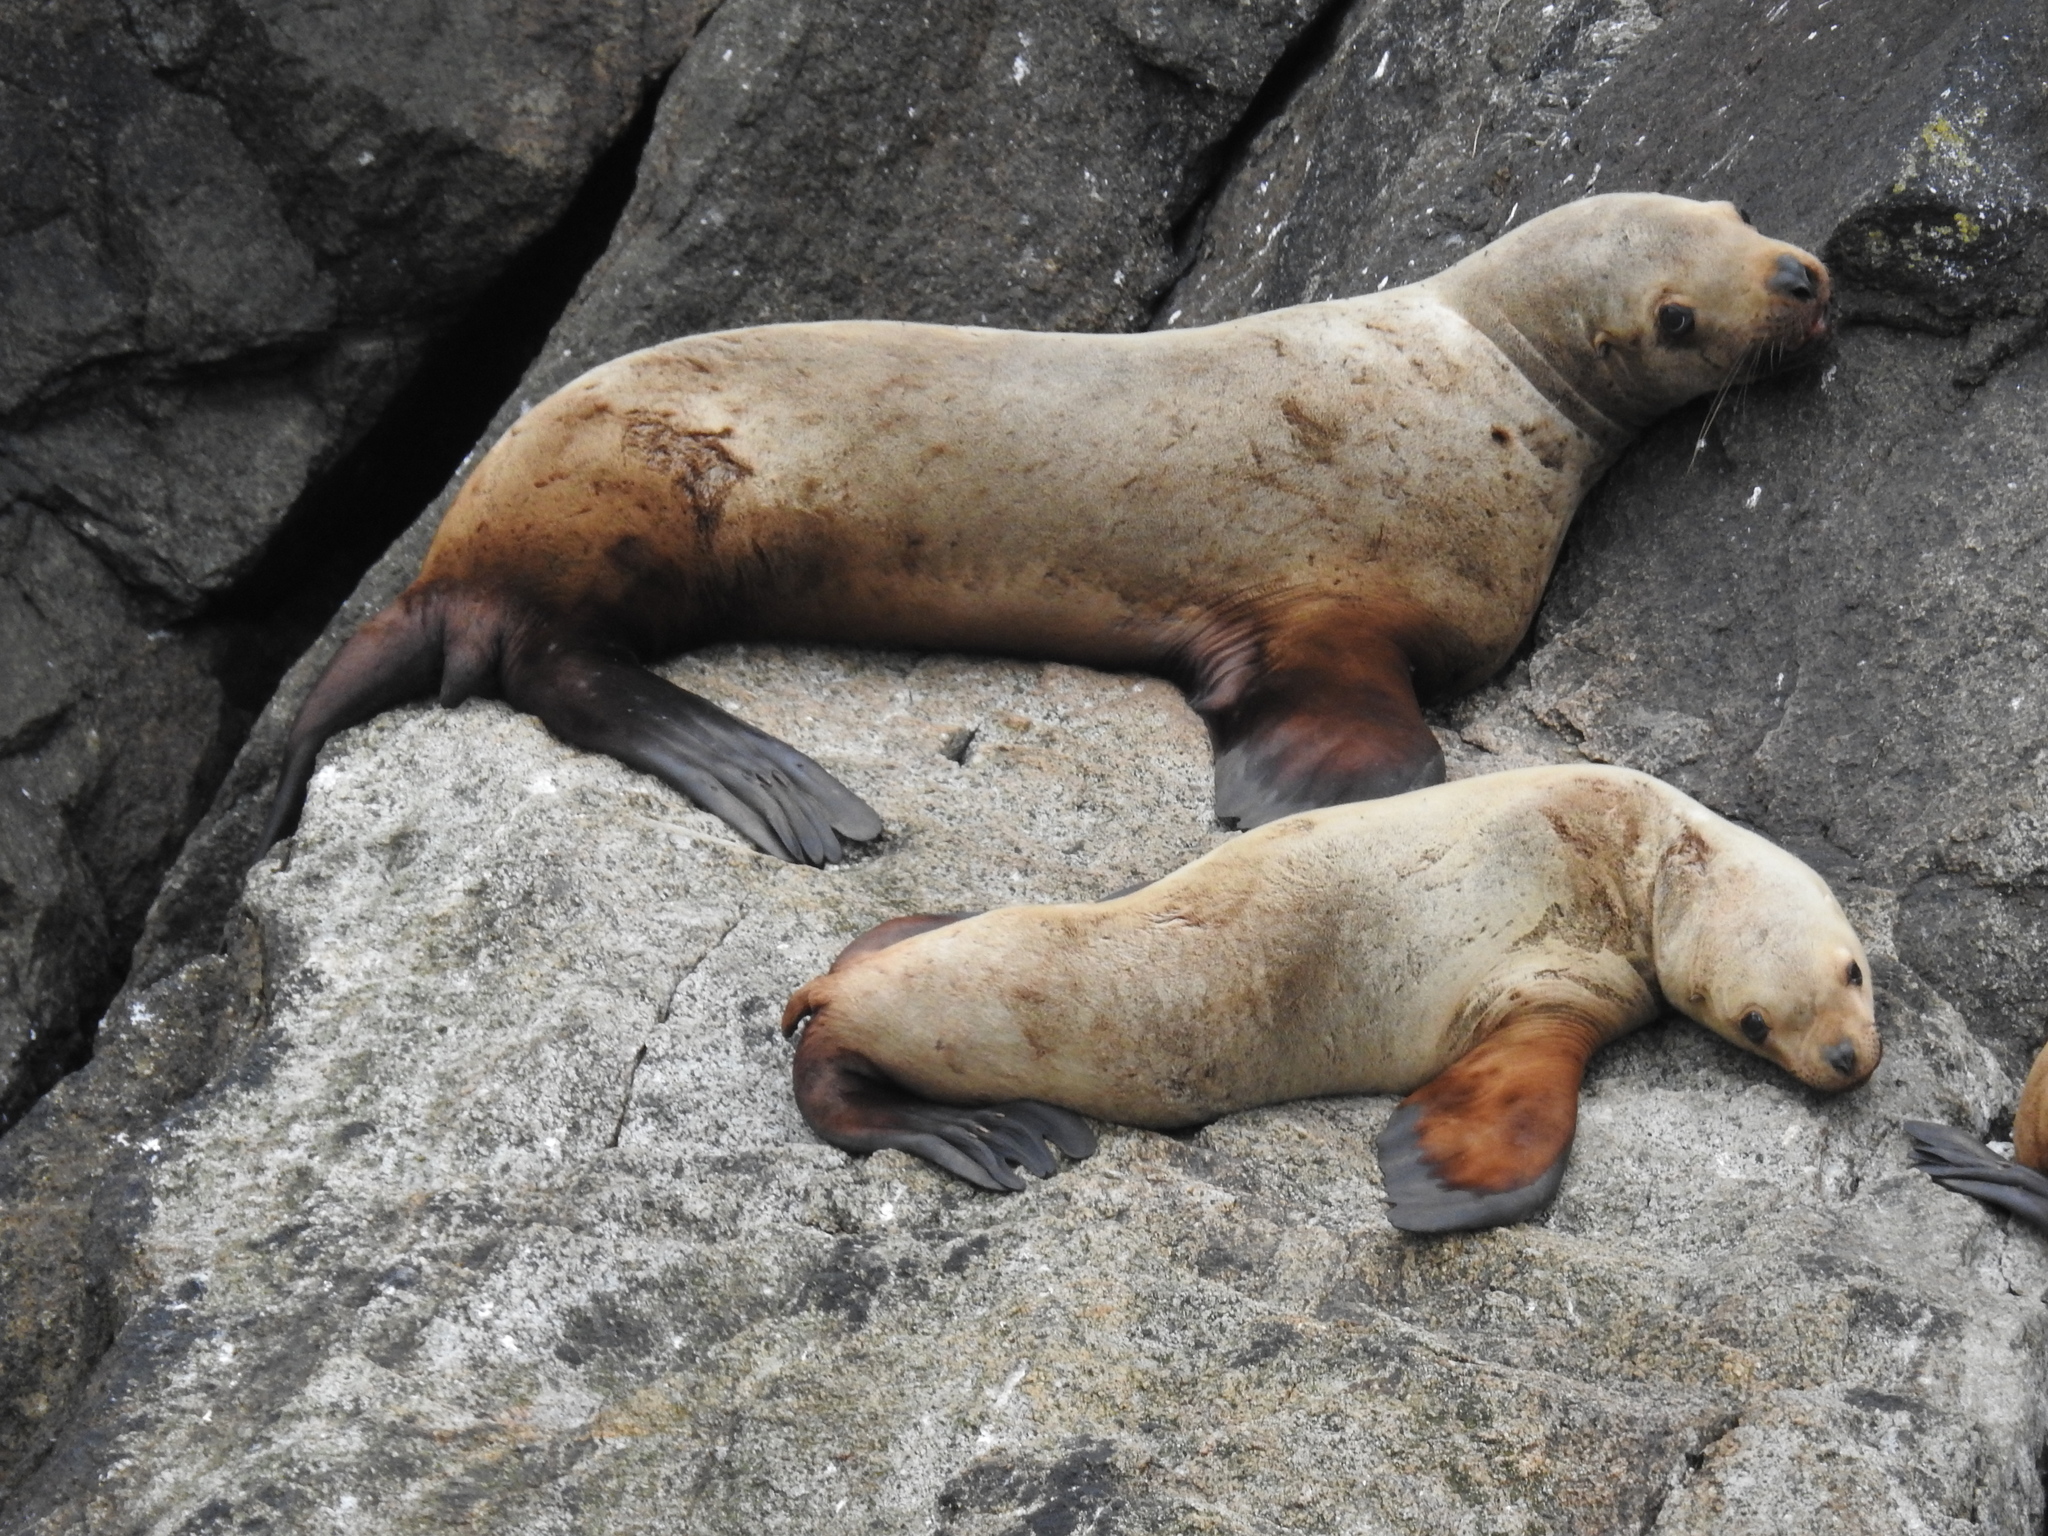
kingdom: Animalia
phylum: Chordata
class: Mammalia
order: Carnivora
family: Otariidae
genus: Eumetopias
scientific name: Eumetopias jubatus
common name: Steller sea lion
